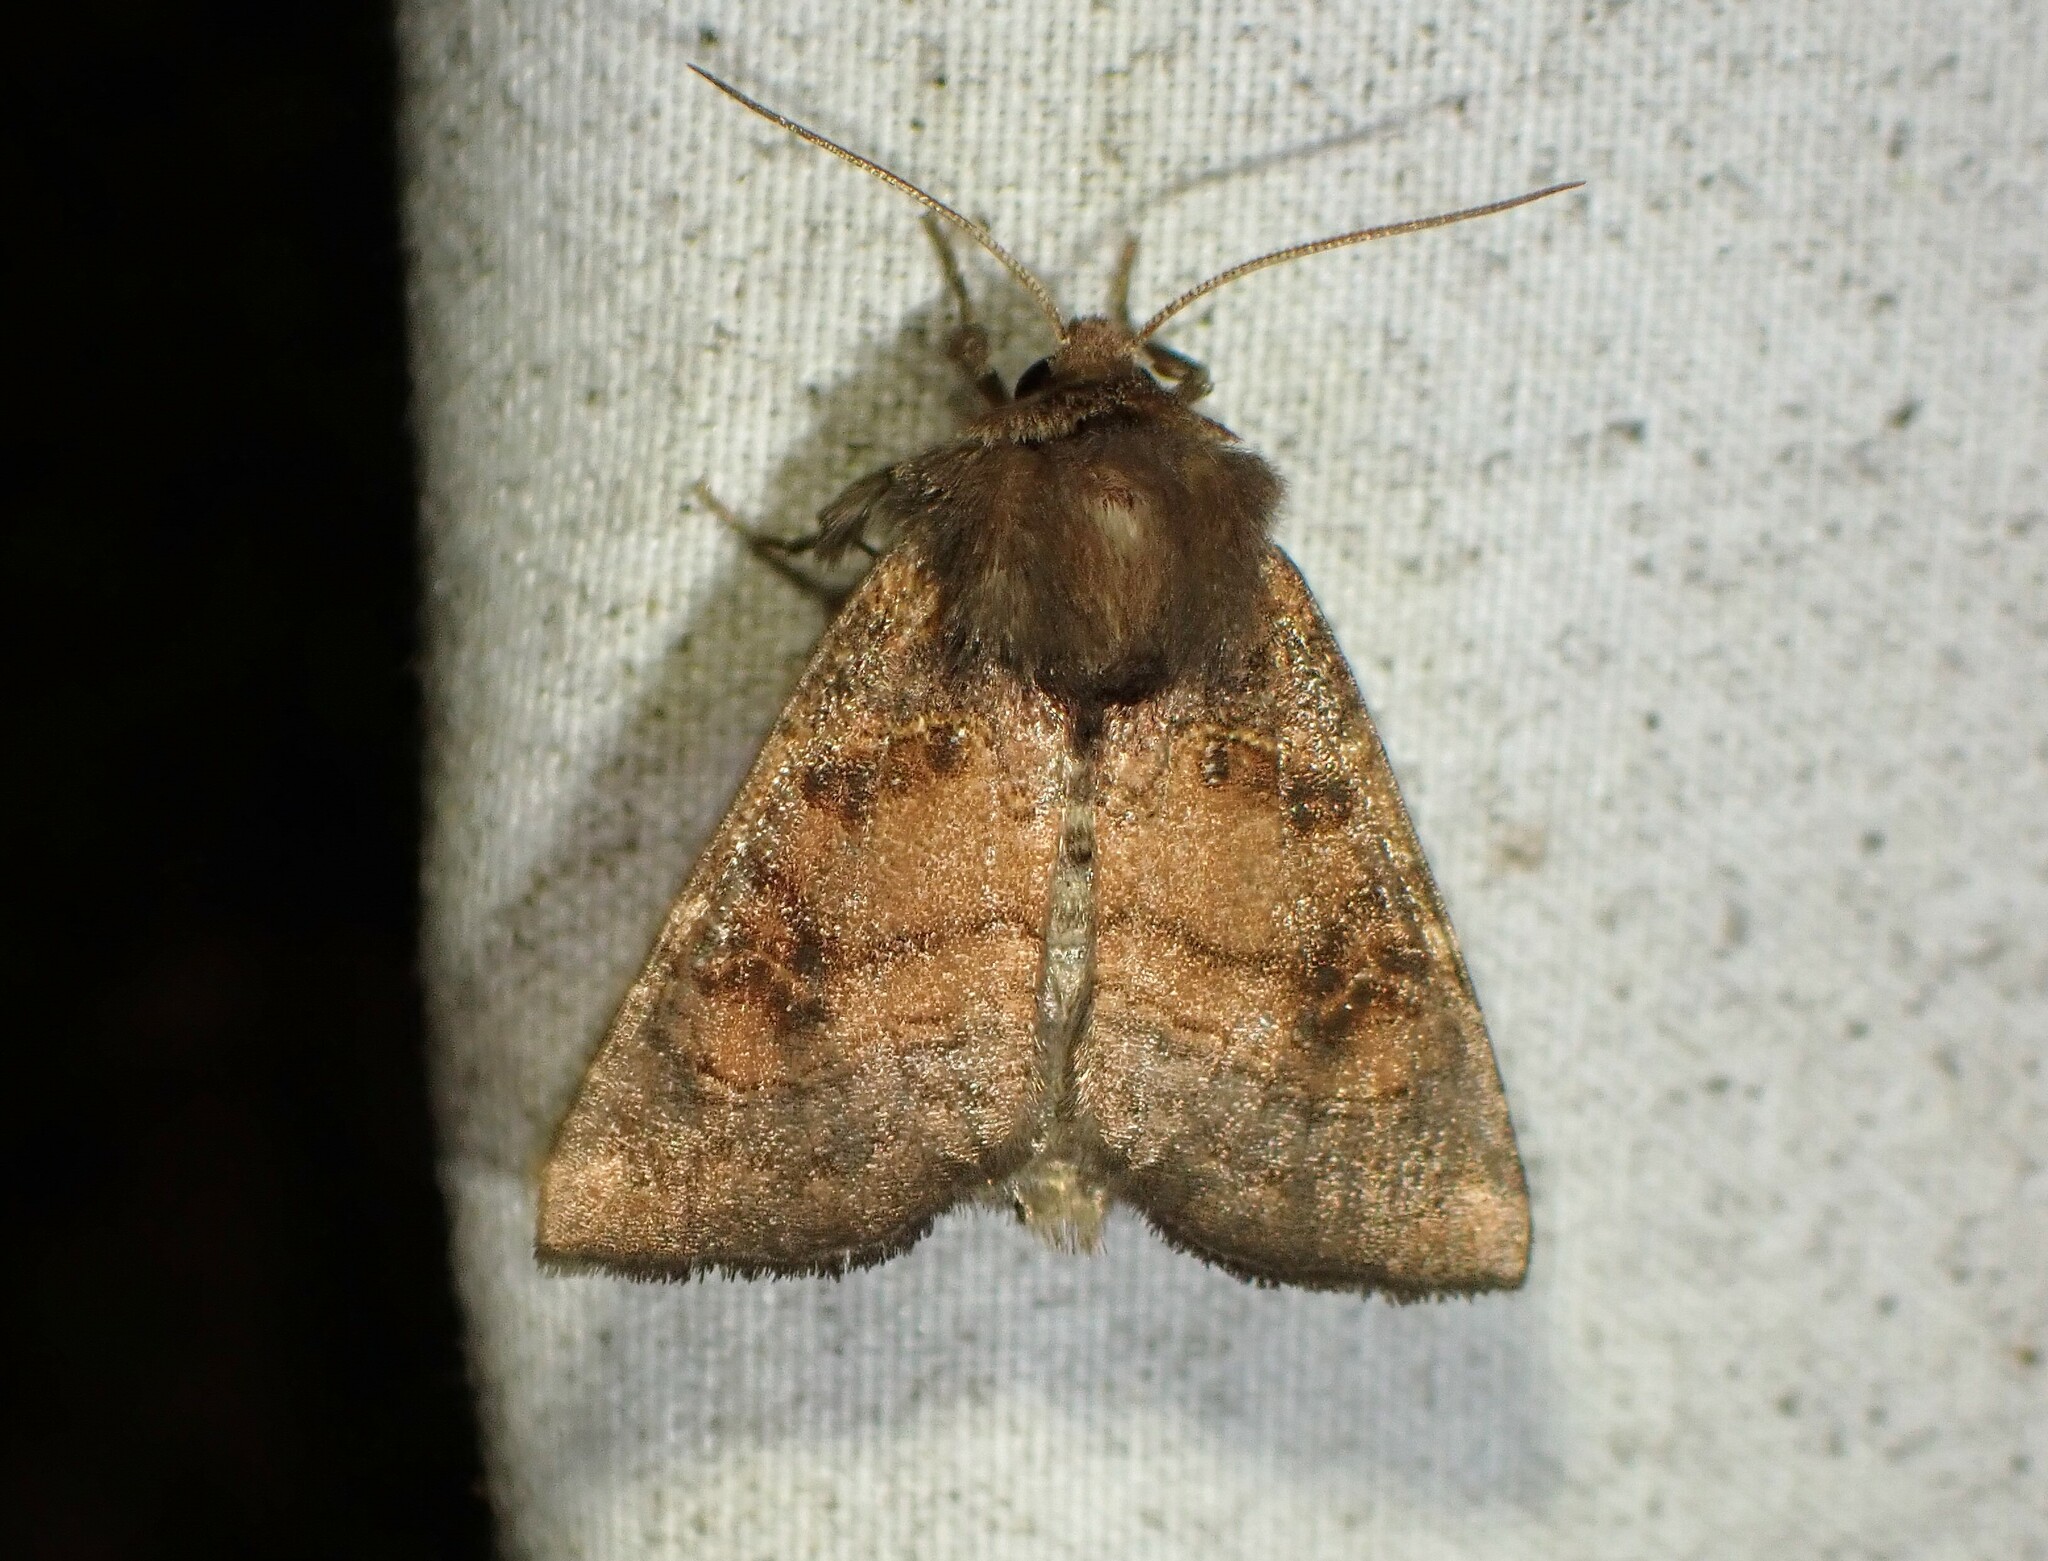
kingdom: Animalia
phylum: Arthropoda
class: Insecta
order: Lepidoptera
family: Noctuidae
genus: Papaipema
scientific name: Papaipema unimoda
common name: Meadow rue borer moth
